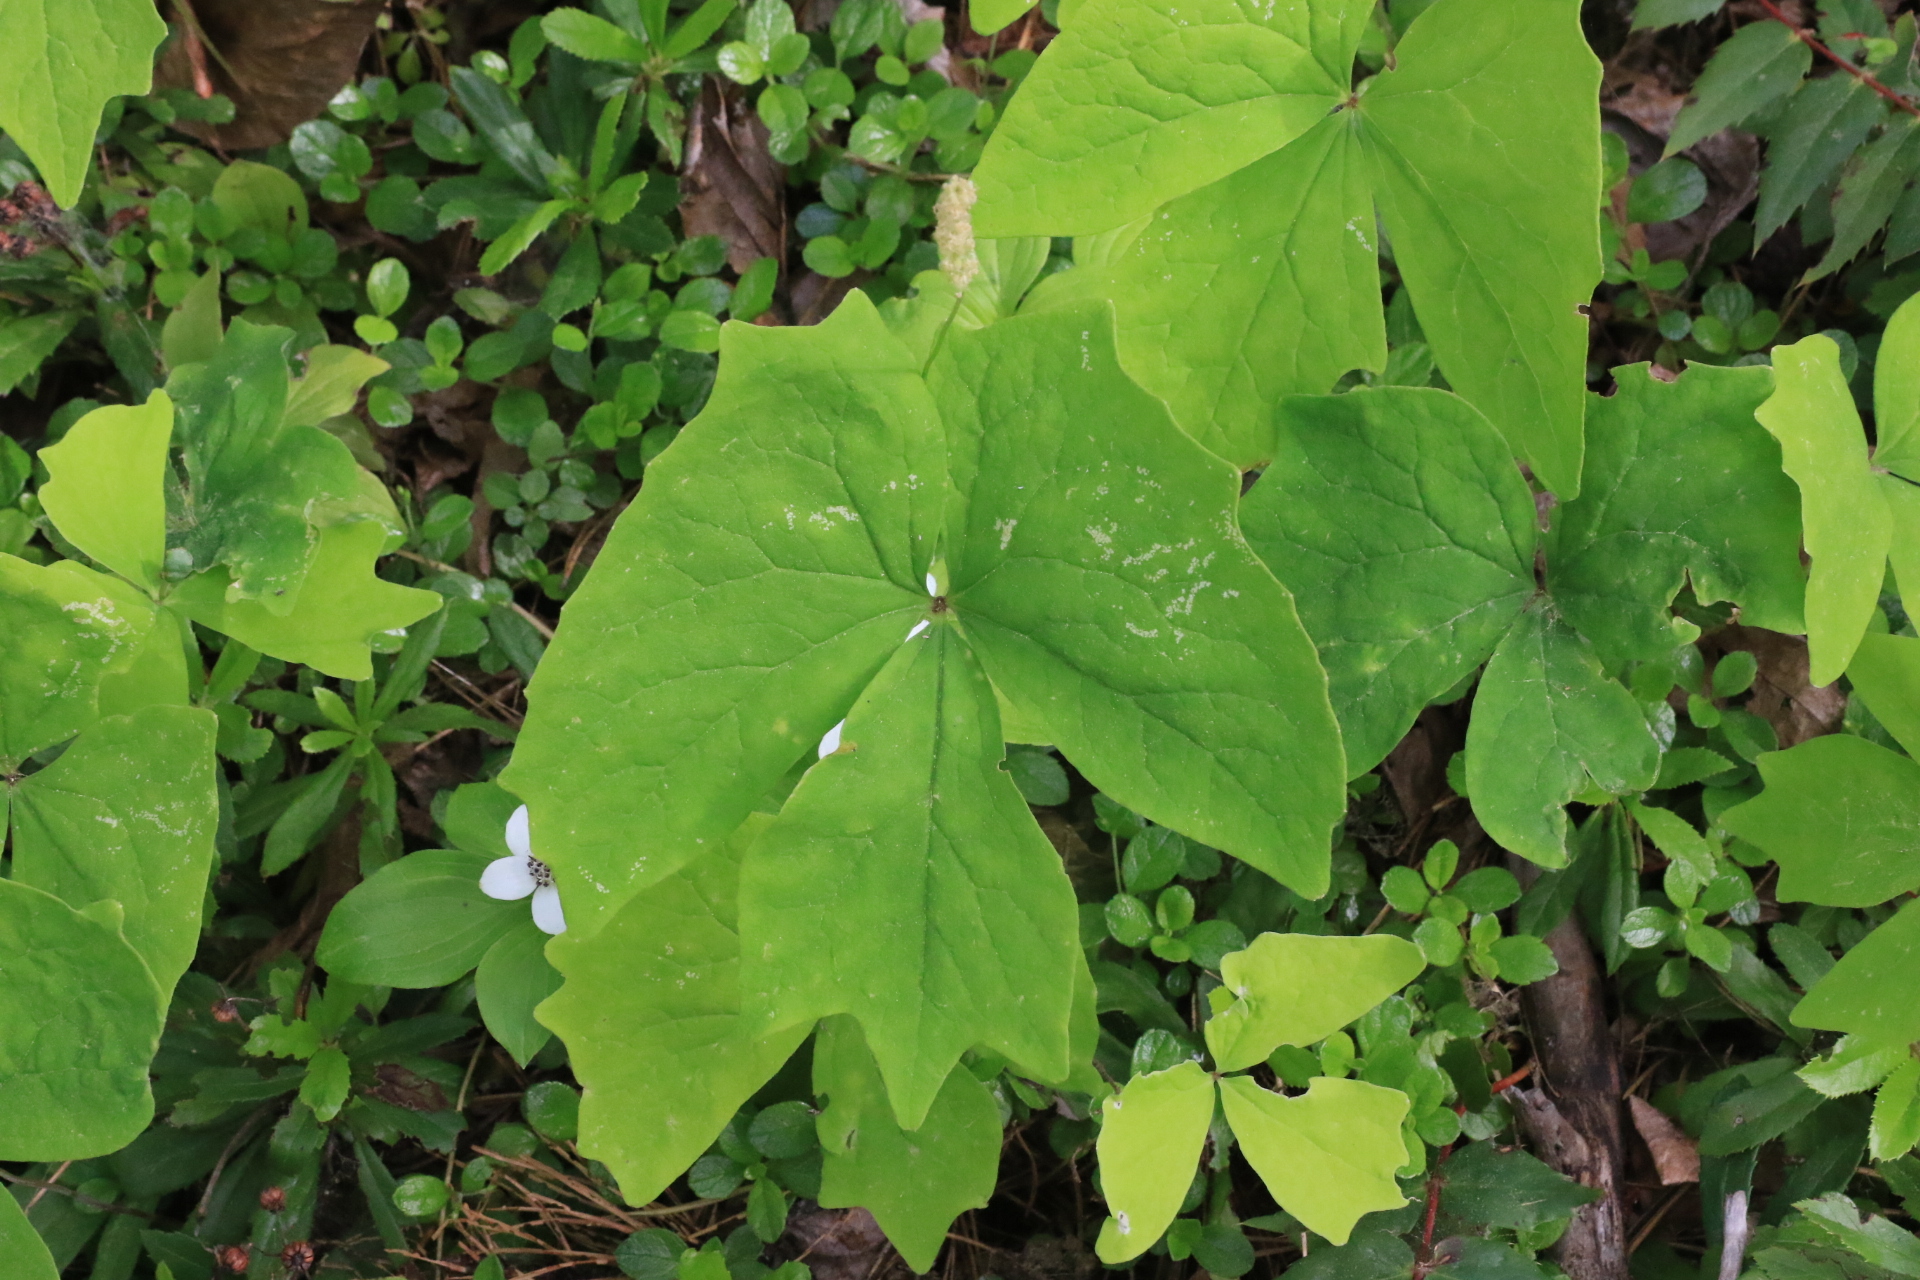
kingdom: Plantae
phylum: Tracheophyta
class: Magnoliopsida
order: Ranunculales
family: Berberidaceae
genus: Achlys
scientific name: Achlys triphylla
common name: Vanilla-leaf
